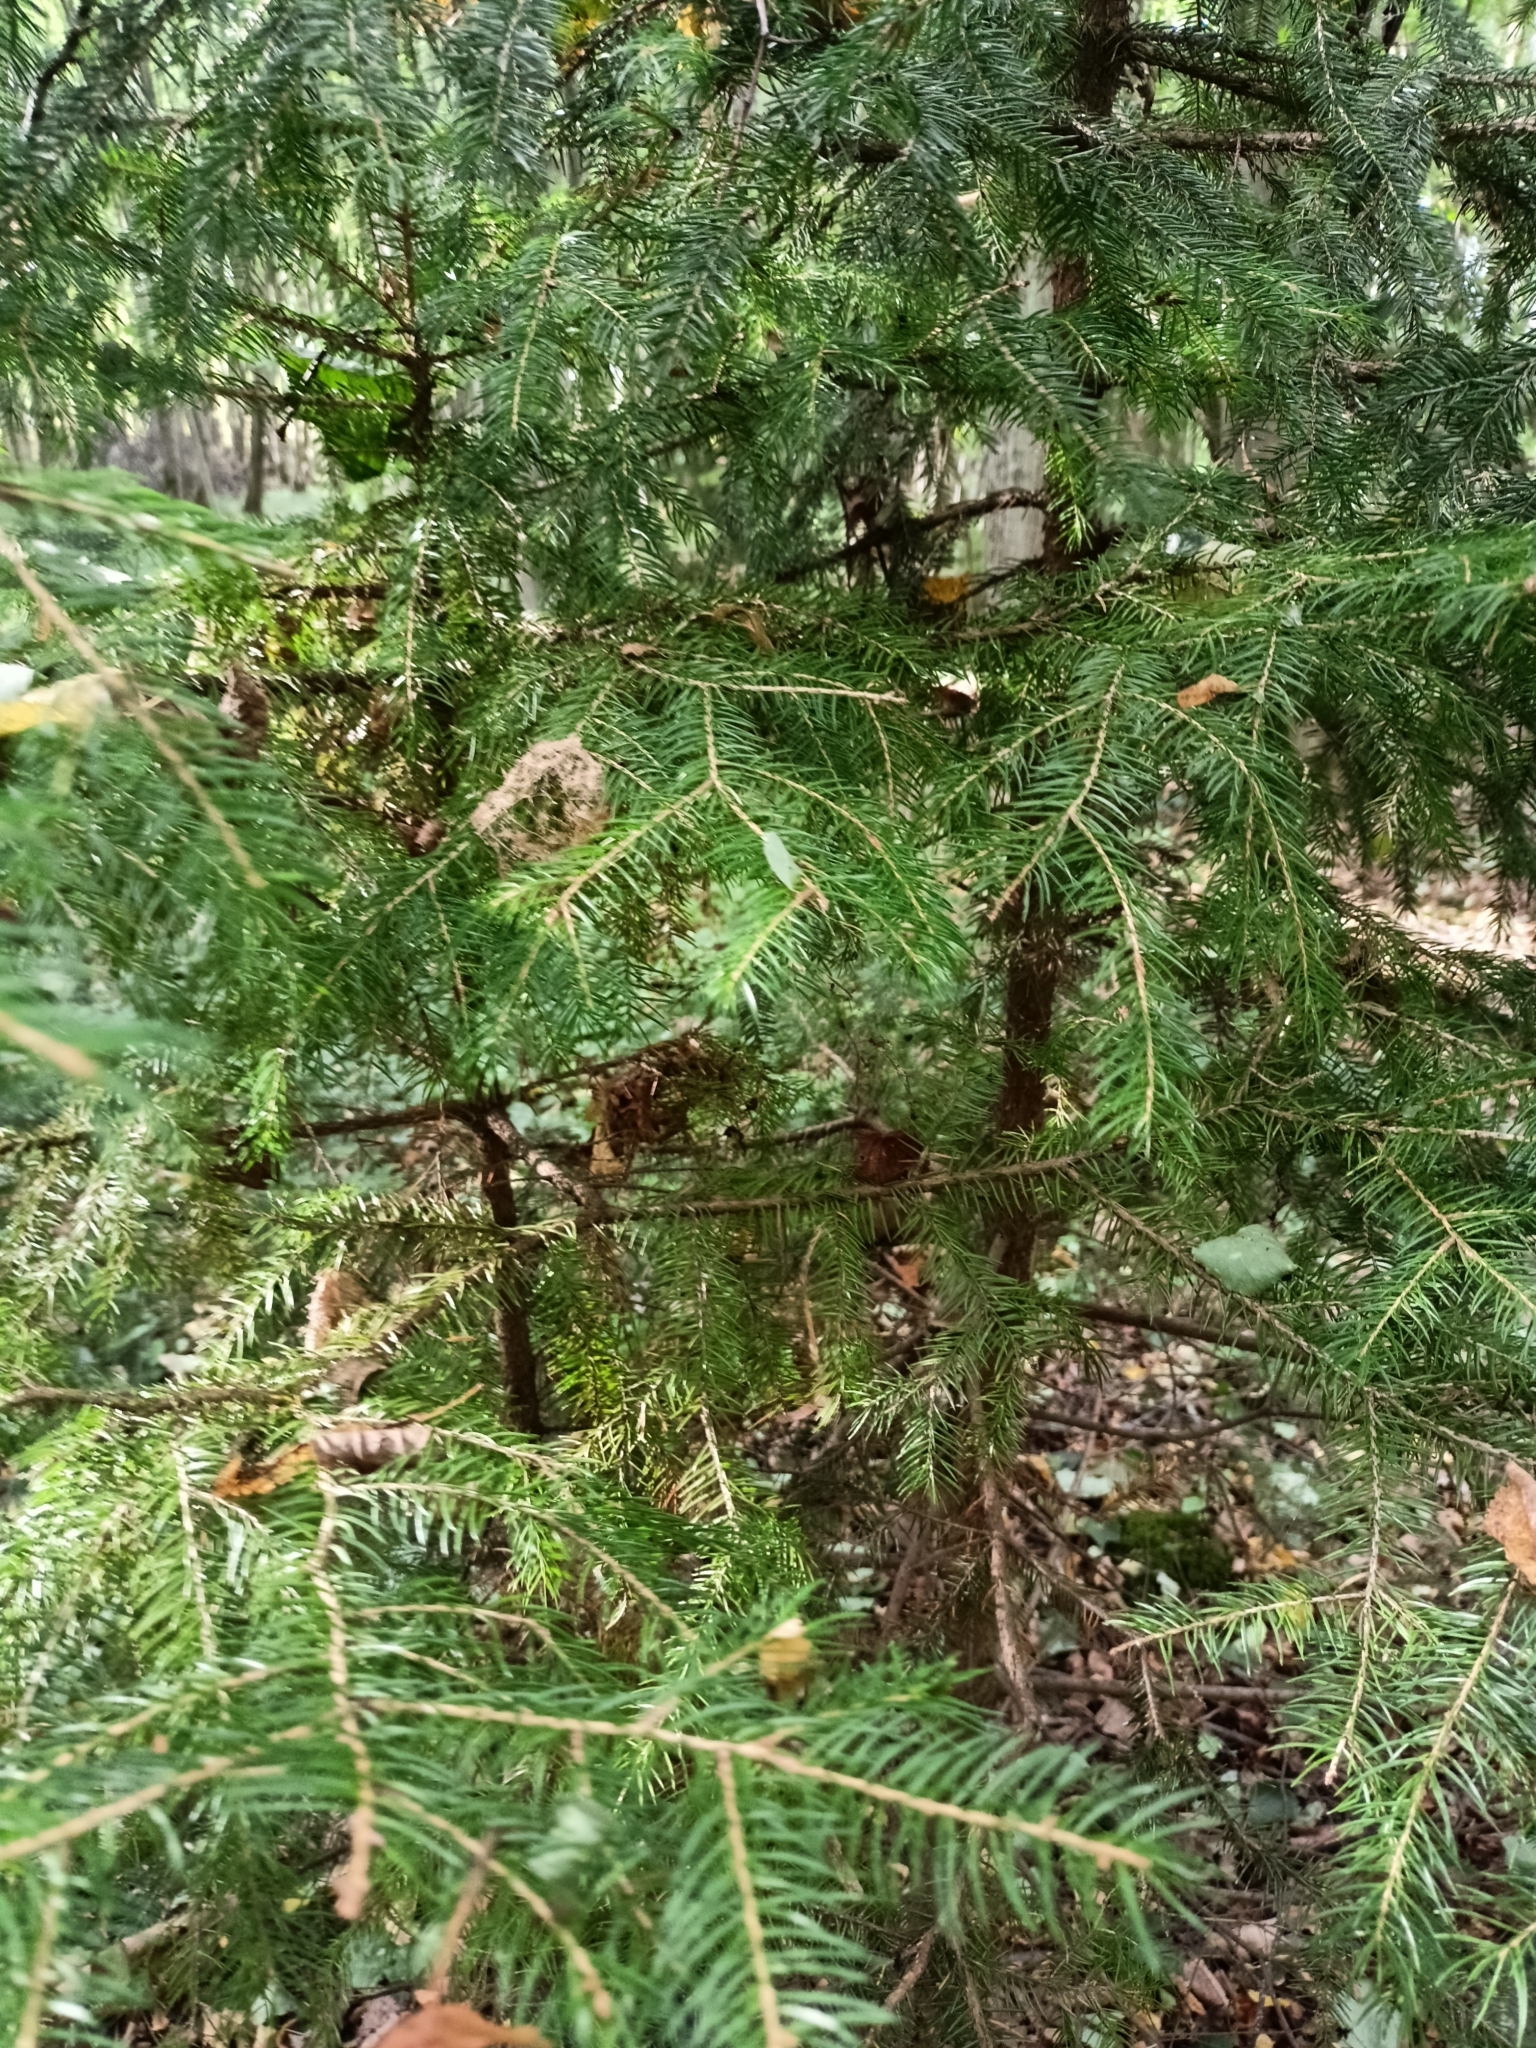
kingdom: Plantae
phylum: Tracheophyta
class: Pinopsida
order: Pinales
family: Pinaceae
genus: Picea
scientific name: Picea abies
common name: Norway spruce
